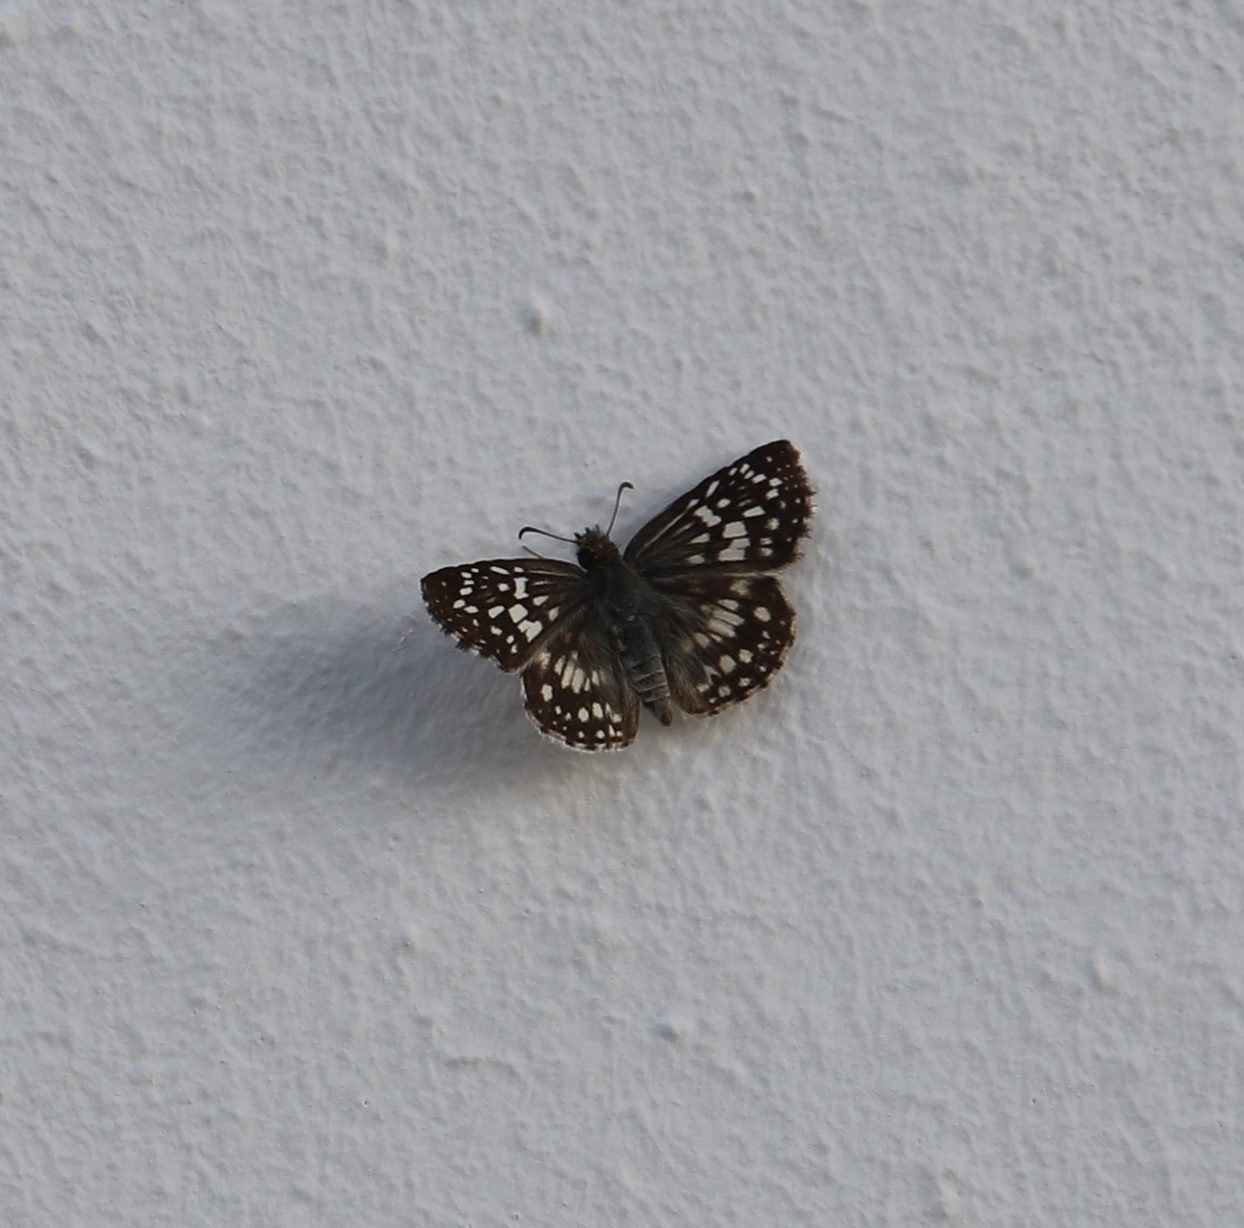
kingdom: Animalia
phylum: Arthropoda
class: Insecta
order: Lepidoptera
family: Hesperiidae
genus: Pyrgus
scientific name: Pyrgus oileus
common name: Tropical checkered-skipper
